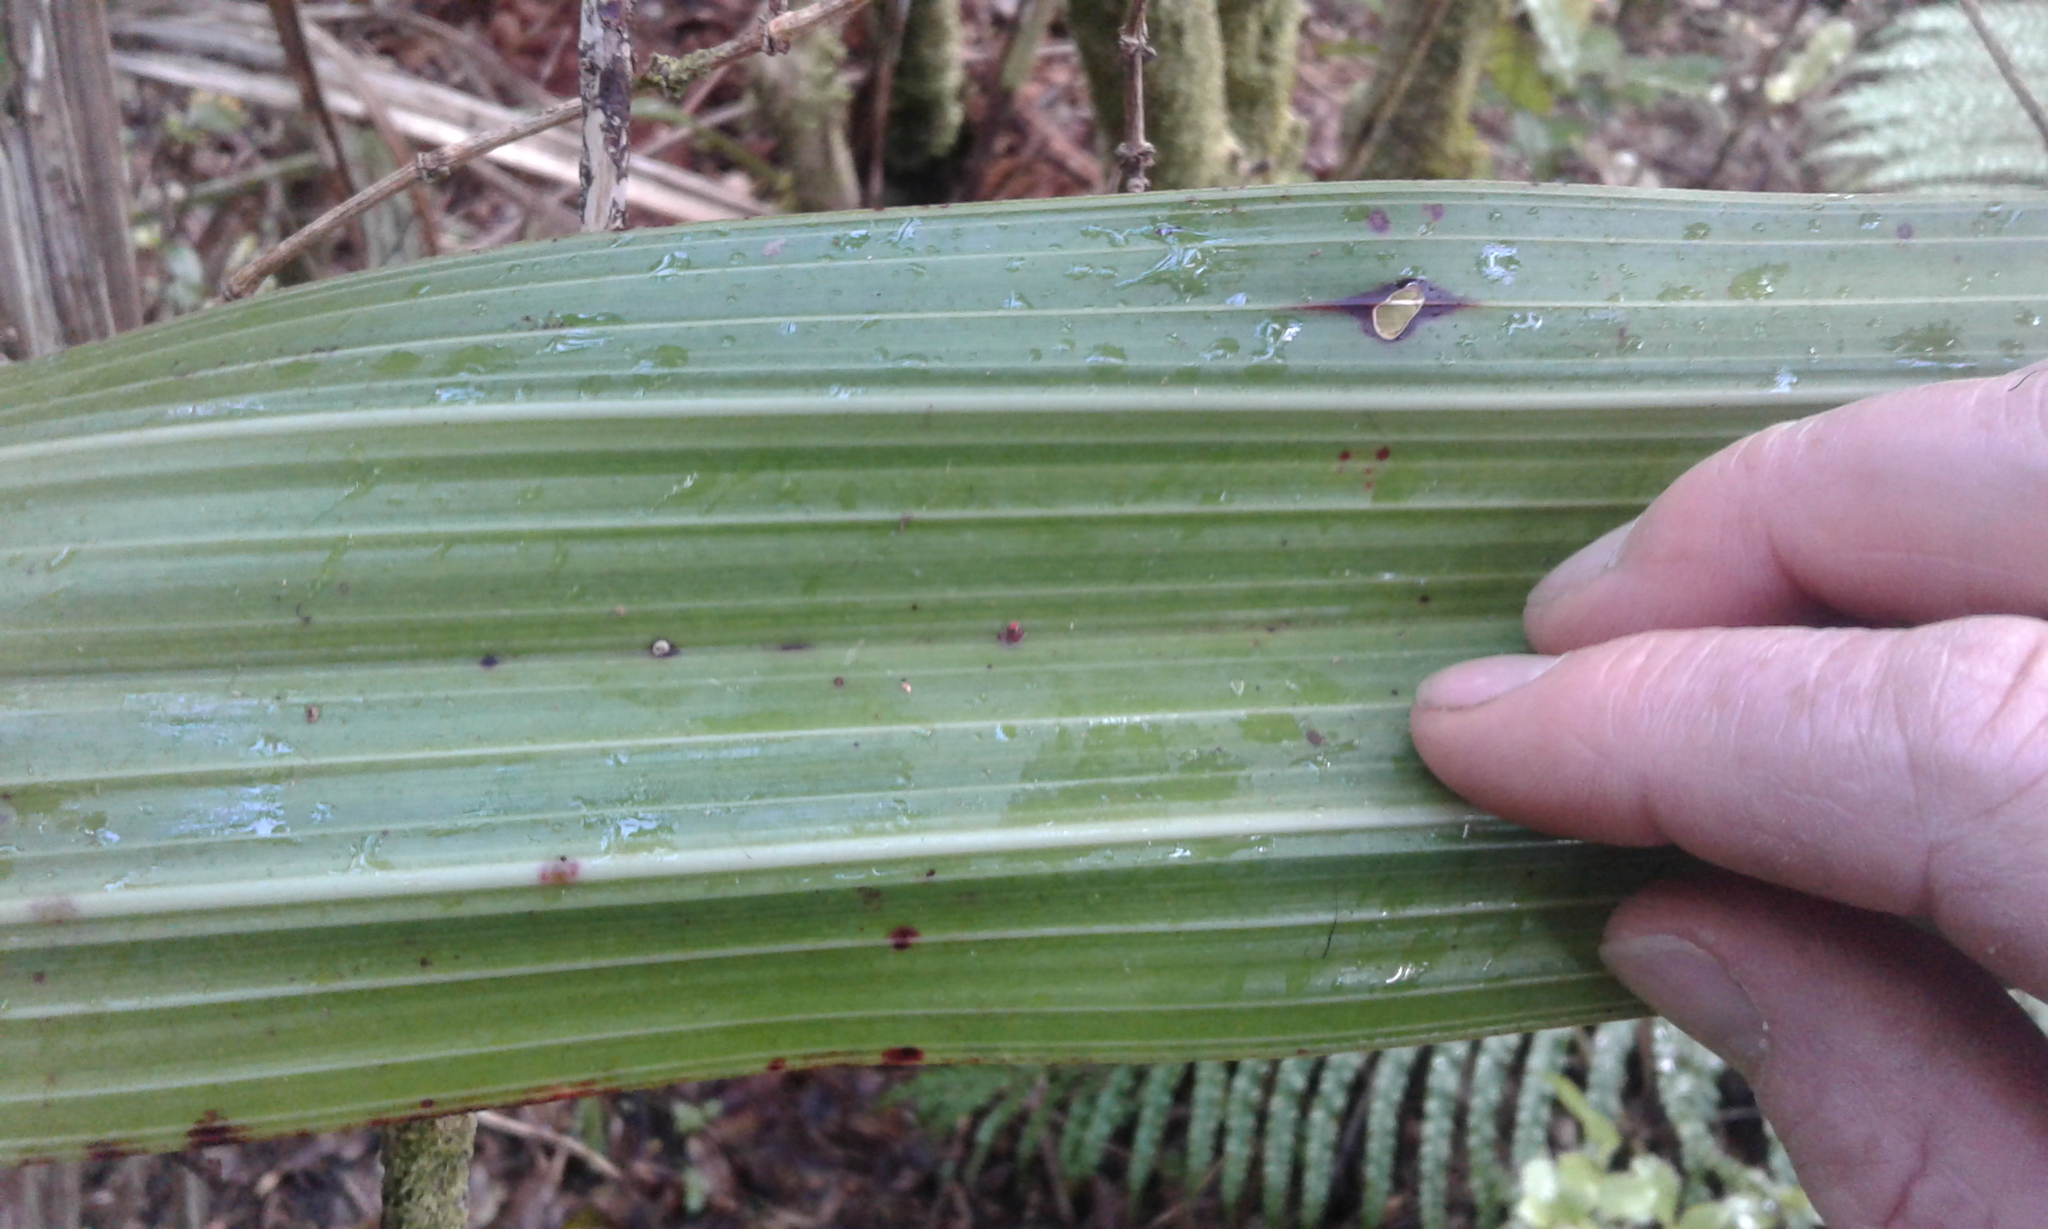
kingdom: Plantae
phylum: Tracheophyta
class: Liliopsida
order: Asparagales
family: Asteliaceae
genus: Astelia
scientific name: Astelia grandis
